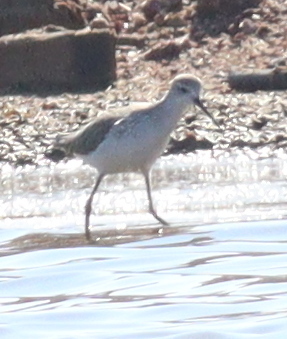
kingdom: Animalia
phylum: Chordata
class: Aves
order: Charadriiformes
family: Scolopacidae
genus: Tringa
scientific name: Tringa stagnatilis
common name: Marsh sandpiper
